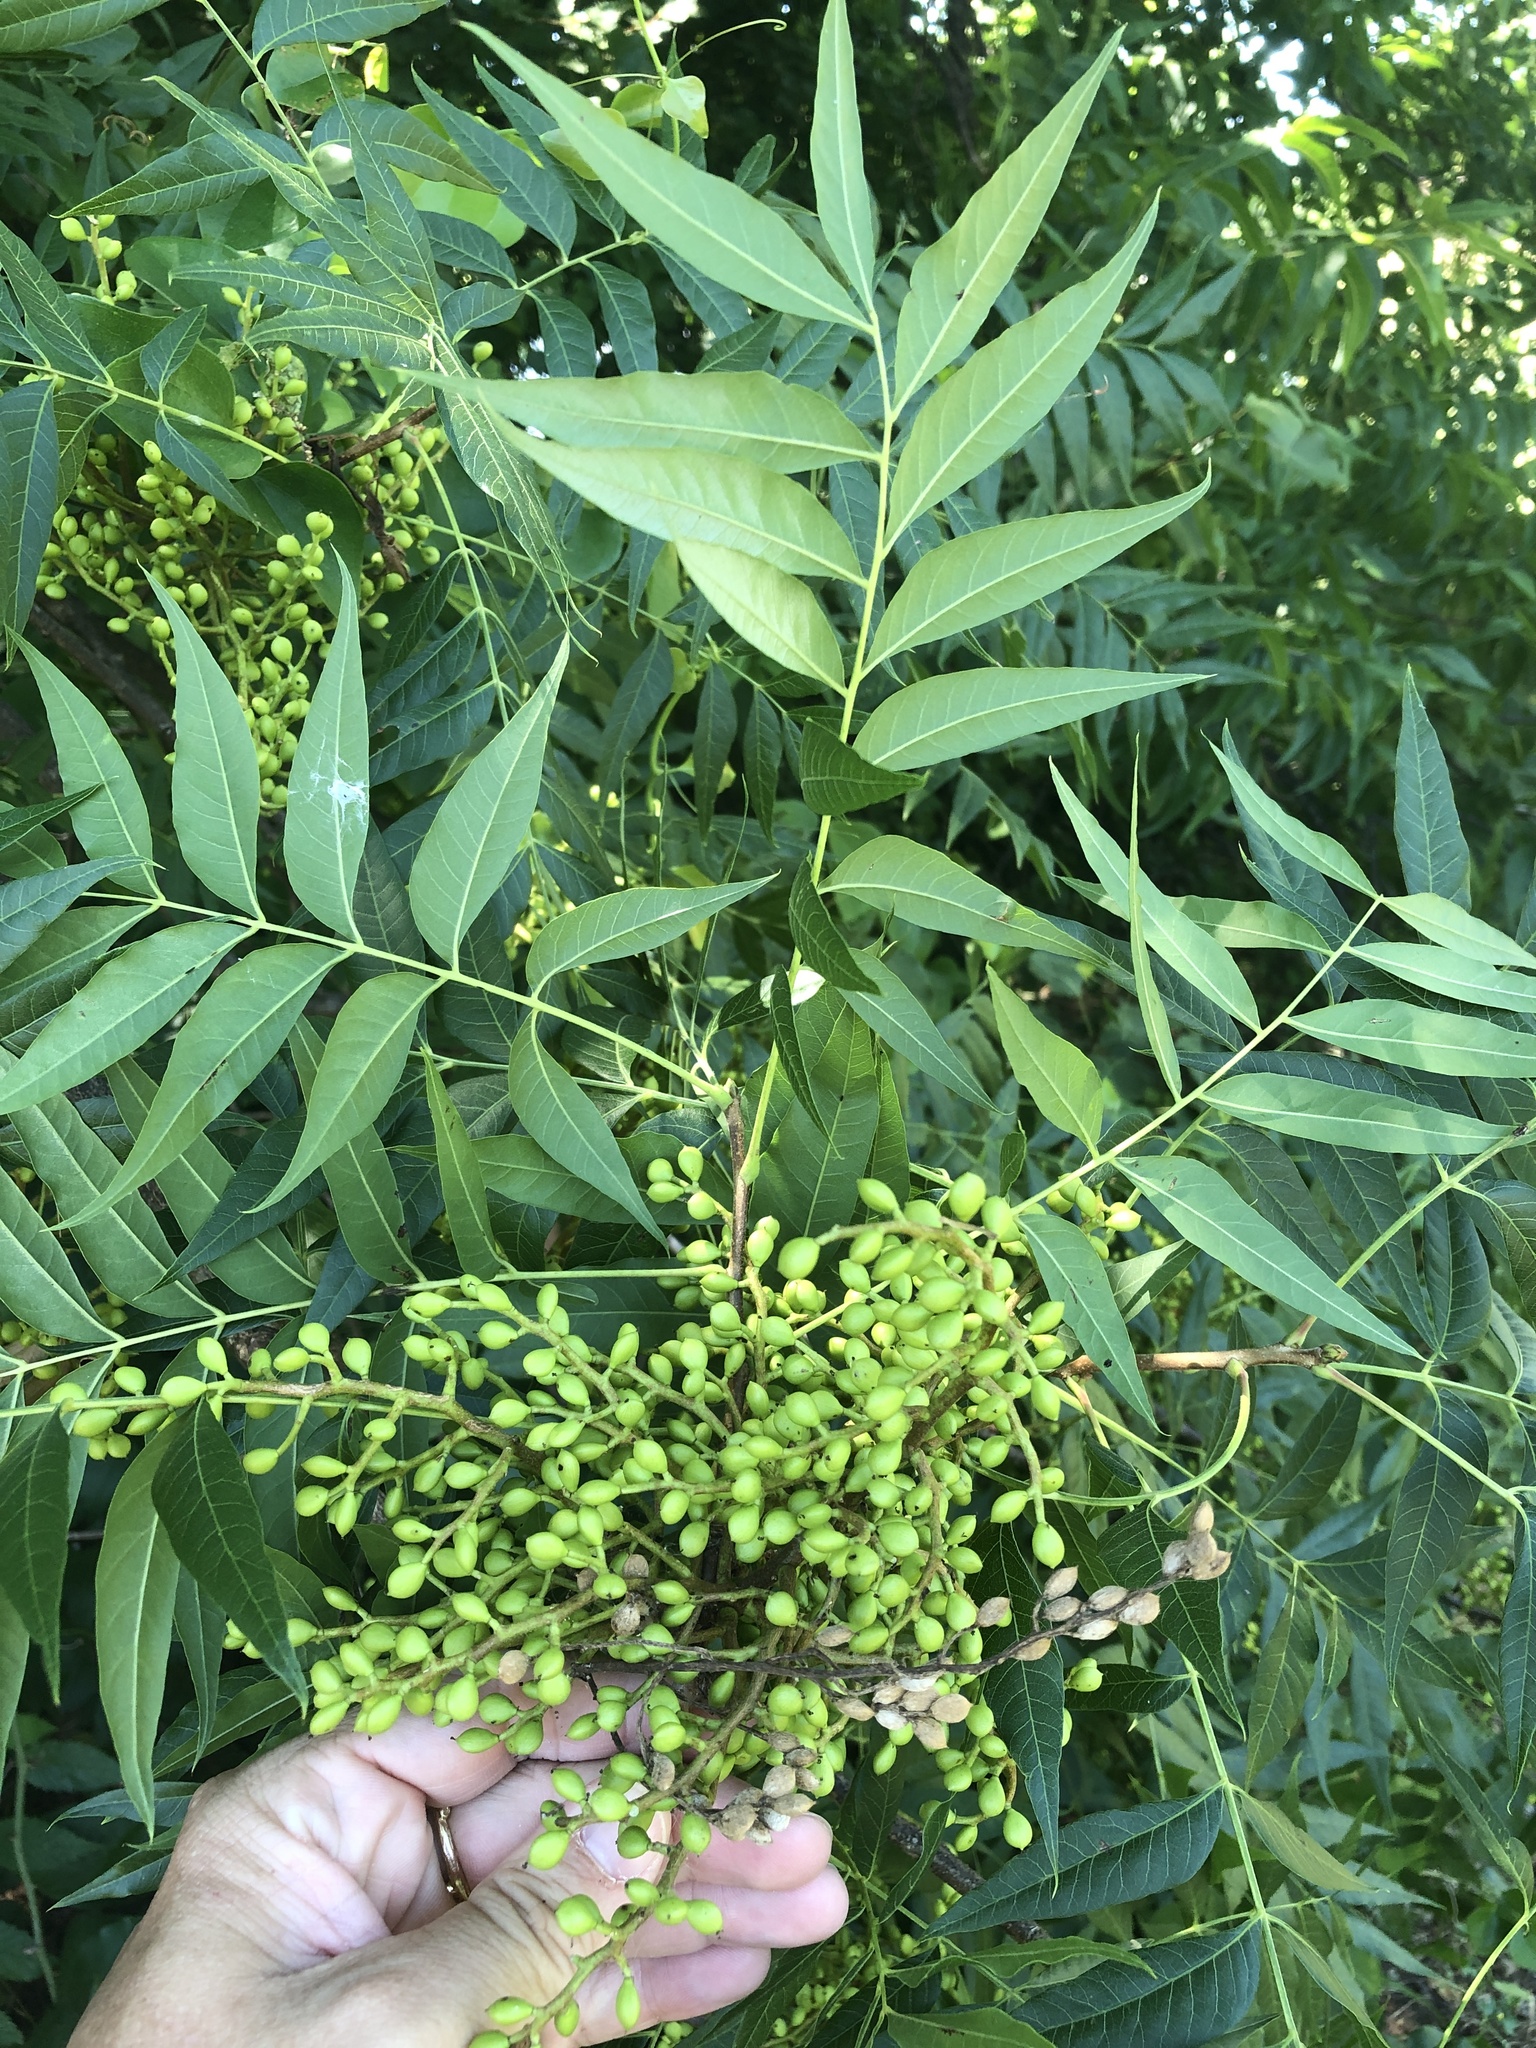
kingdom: Plantae
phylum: Tracheophyta
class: Magnoliopsida
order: Sapindales
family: Anacardiaceae
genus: Pistacia
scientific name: Pistacia chinensis
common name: Chinese pistache
